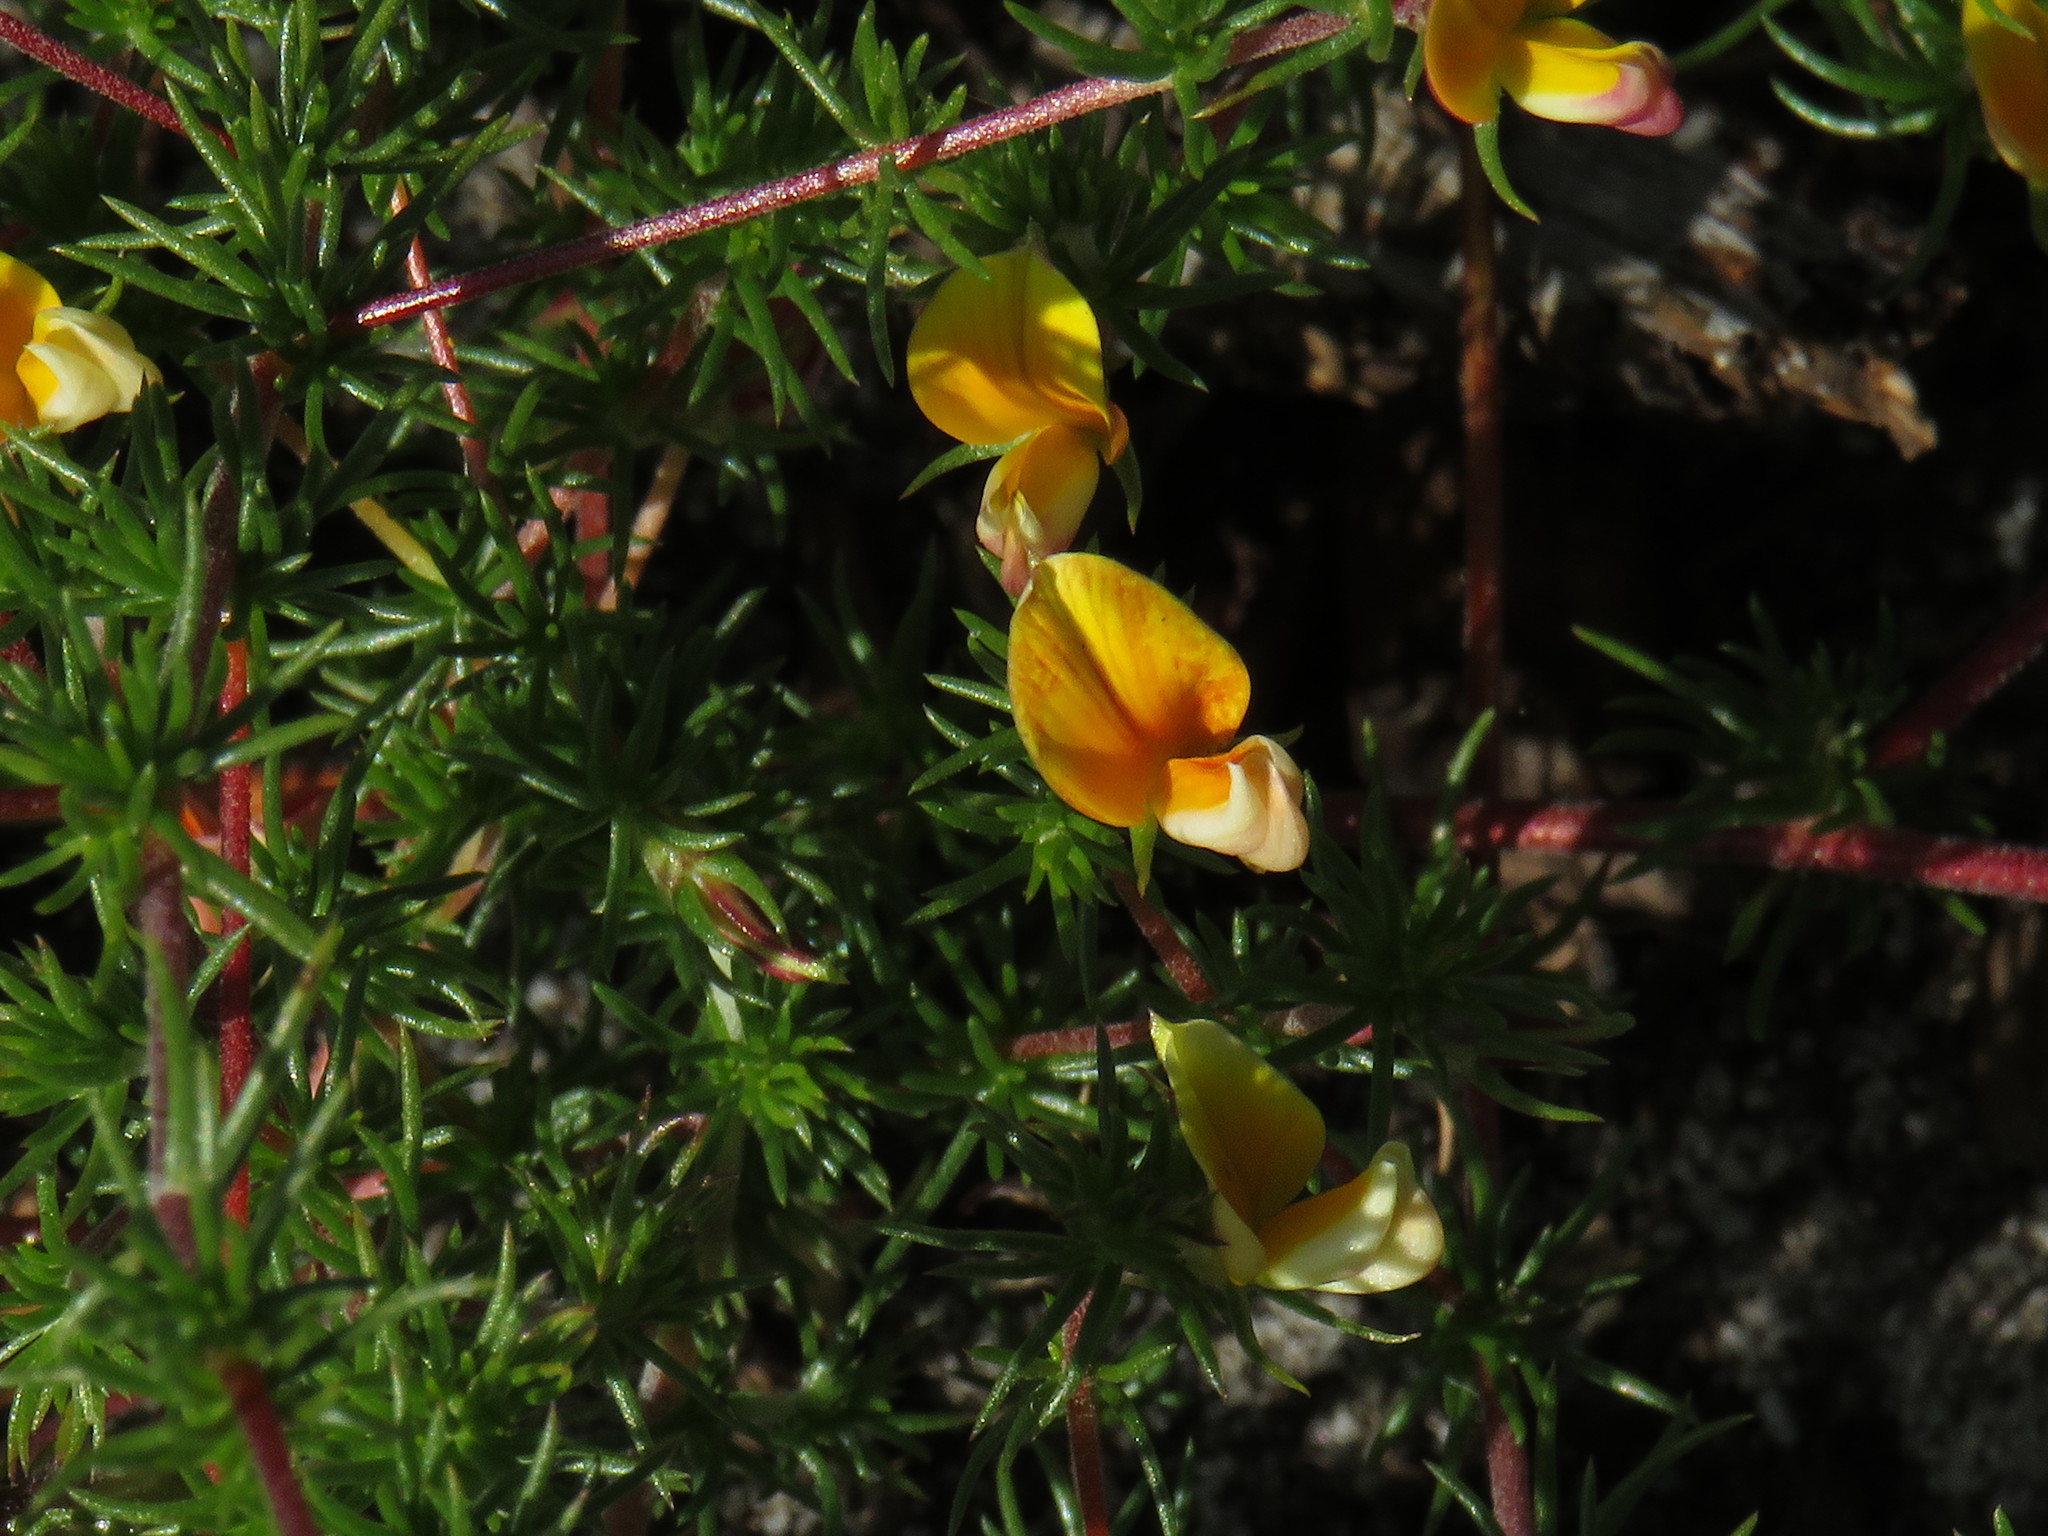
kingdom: Plantae
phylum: Tracheophyta
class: Magnoliopsida
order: Fabales
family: Fabaceae
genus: Aspalathus
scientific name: Aspalathus retroflexa
